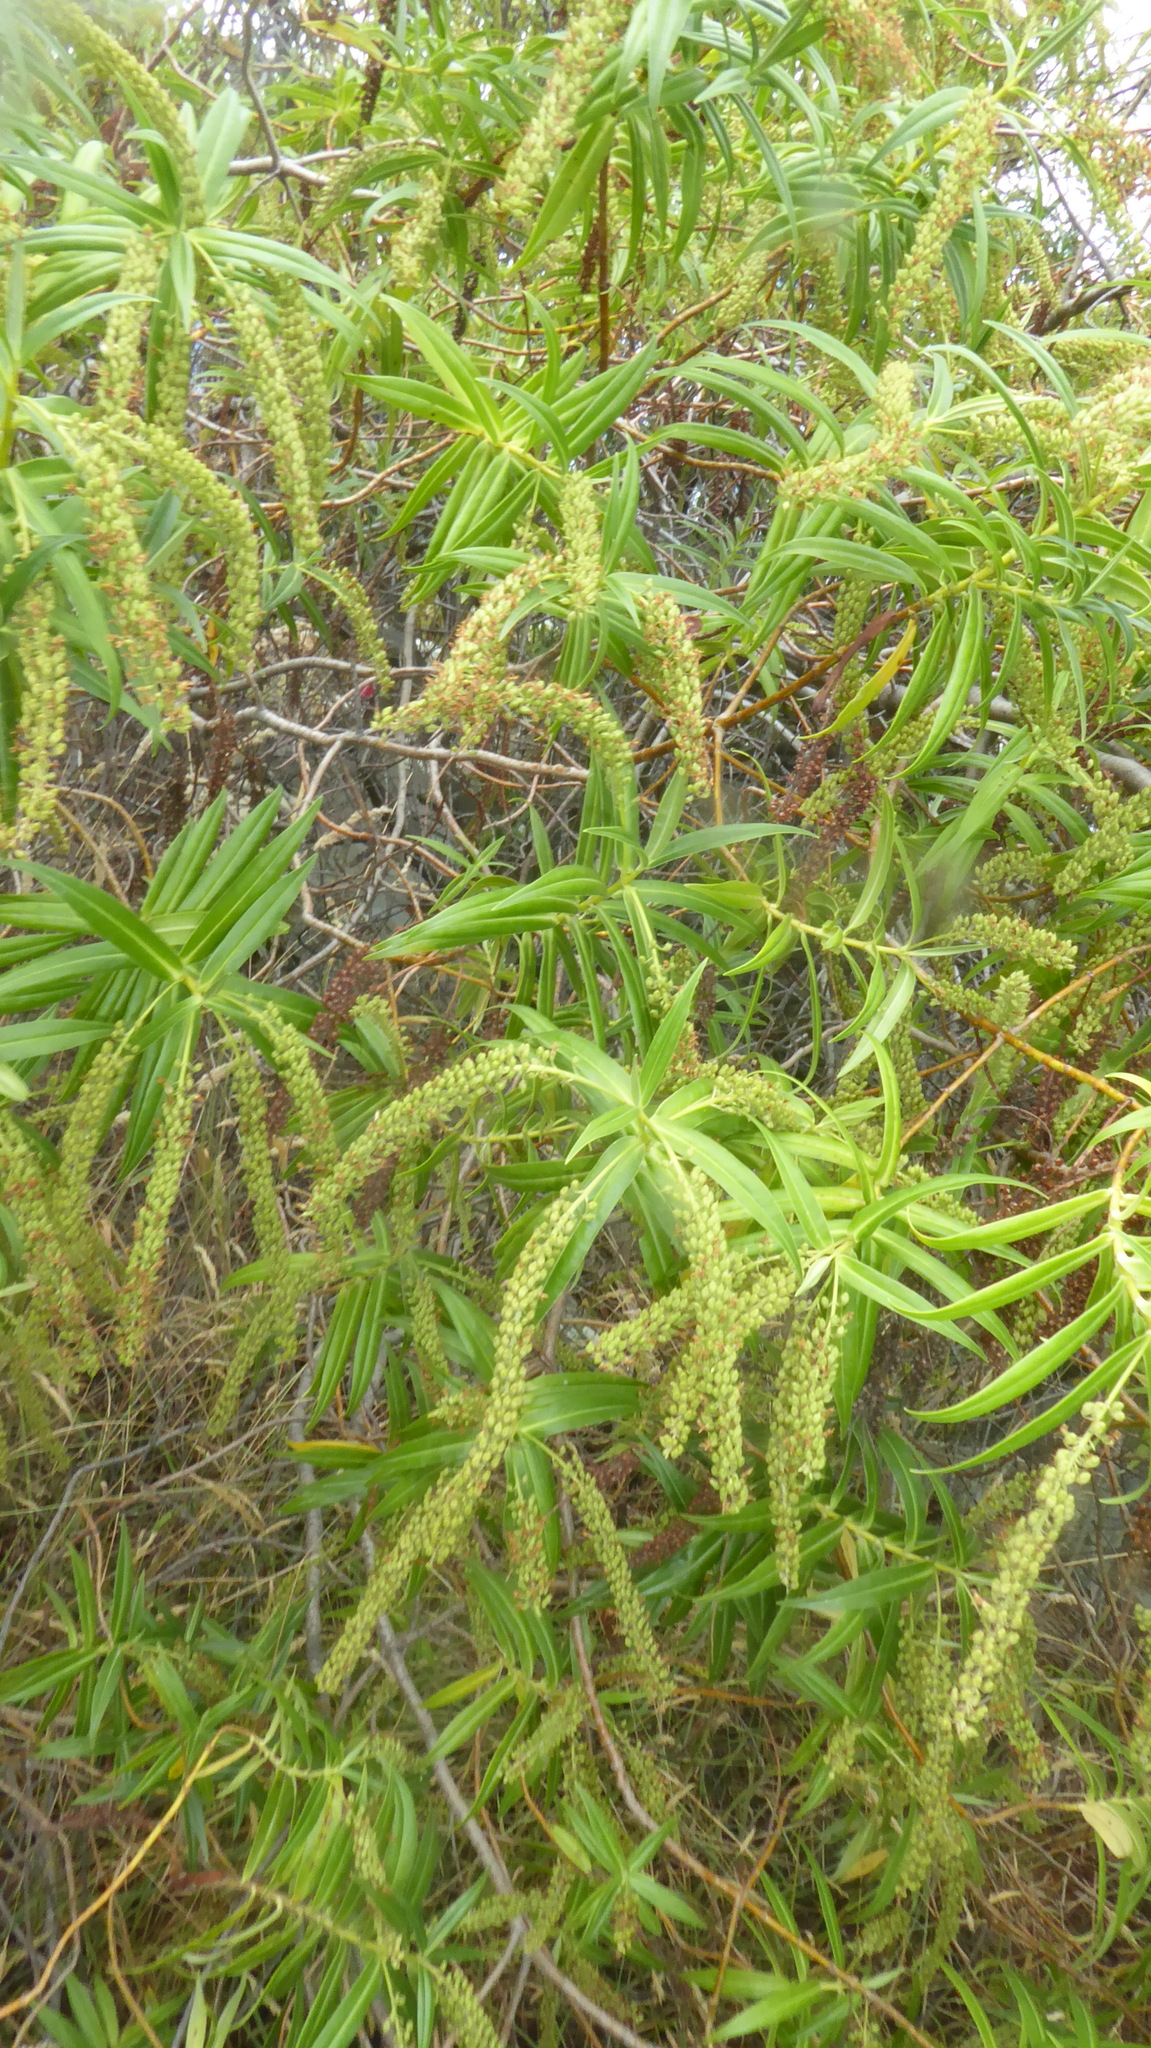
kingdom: Plantae
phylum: Tracheophyta
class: Magnoliopsida
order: Lamiales
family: Plantaginaceae
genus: Veronica
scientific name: Veronica salicifolia
